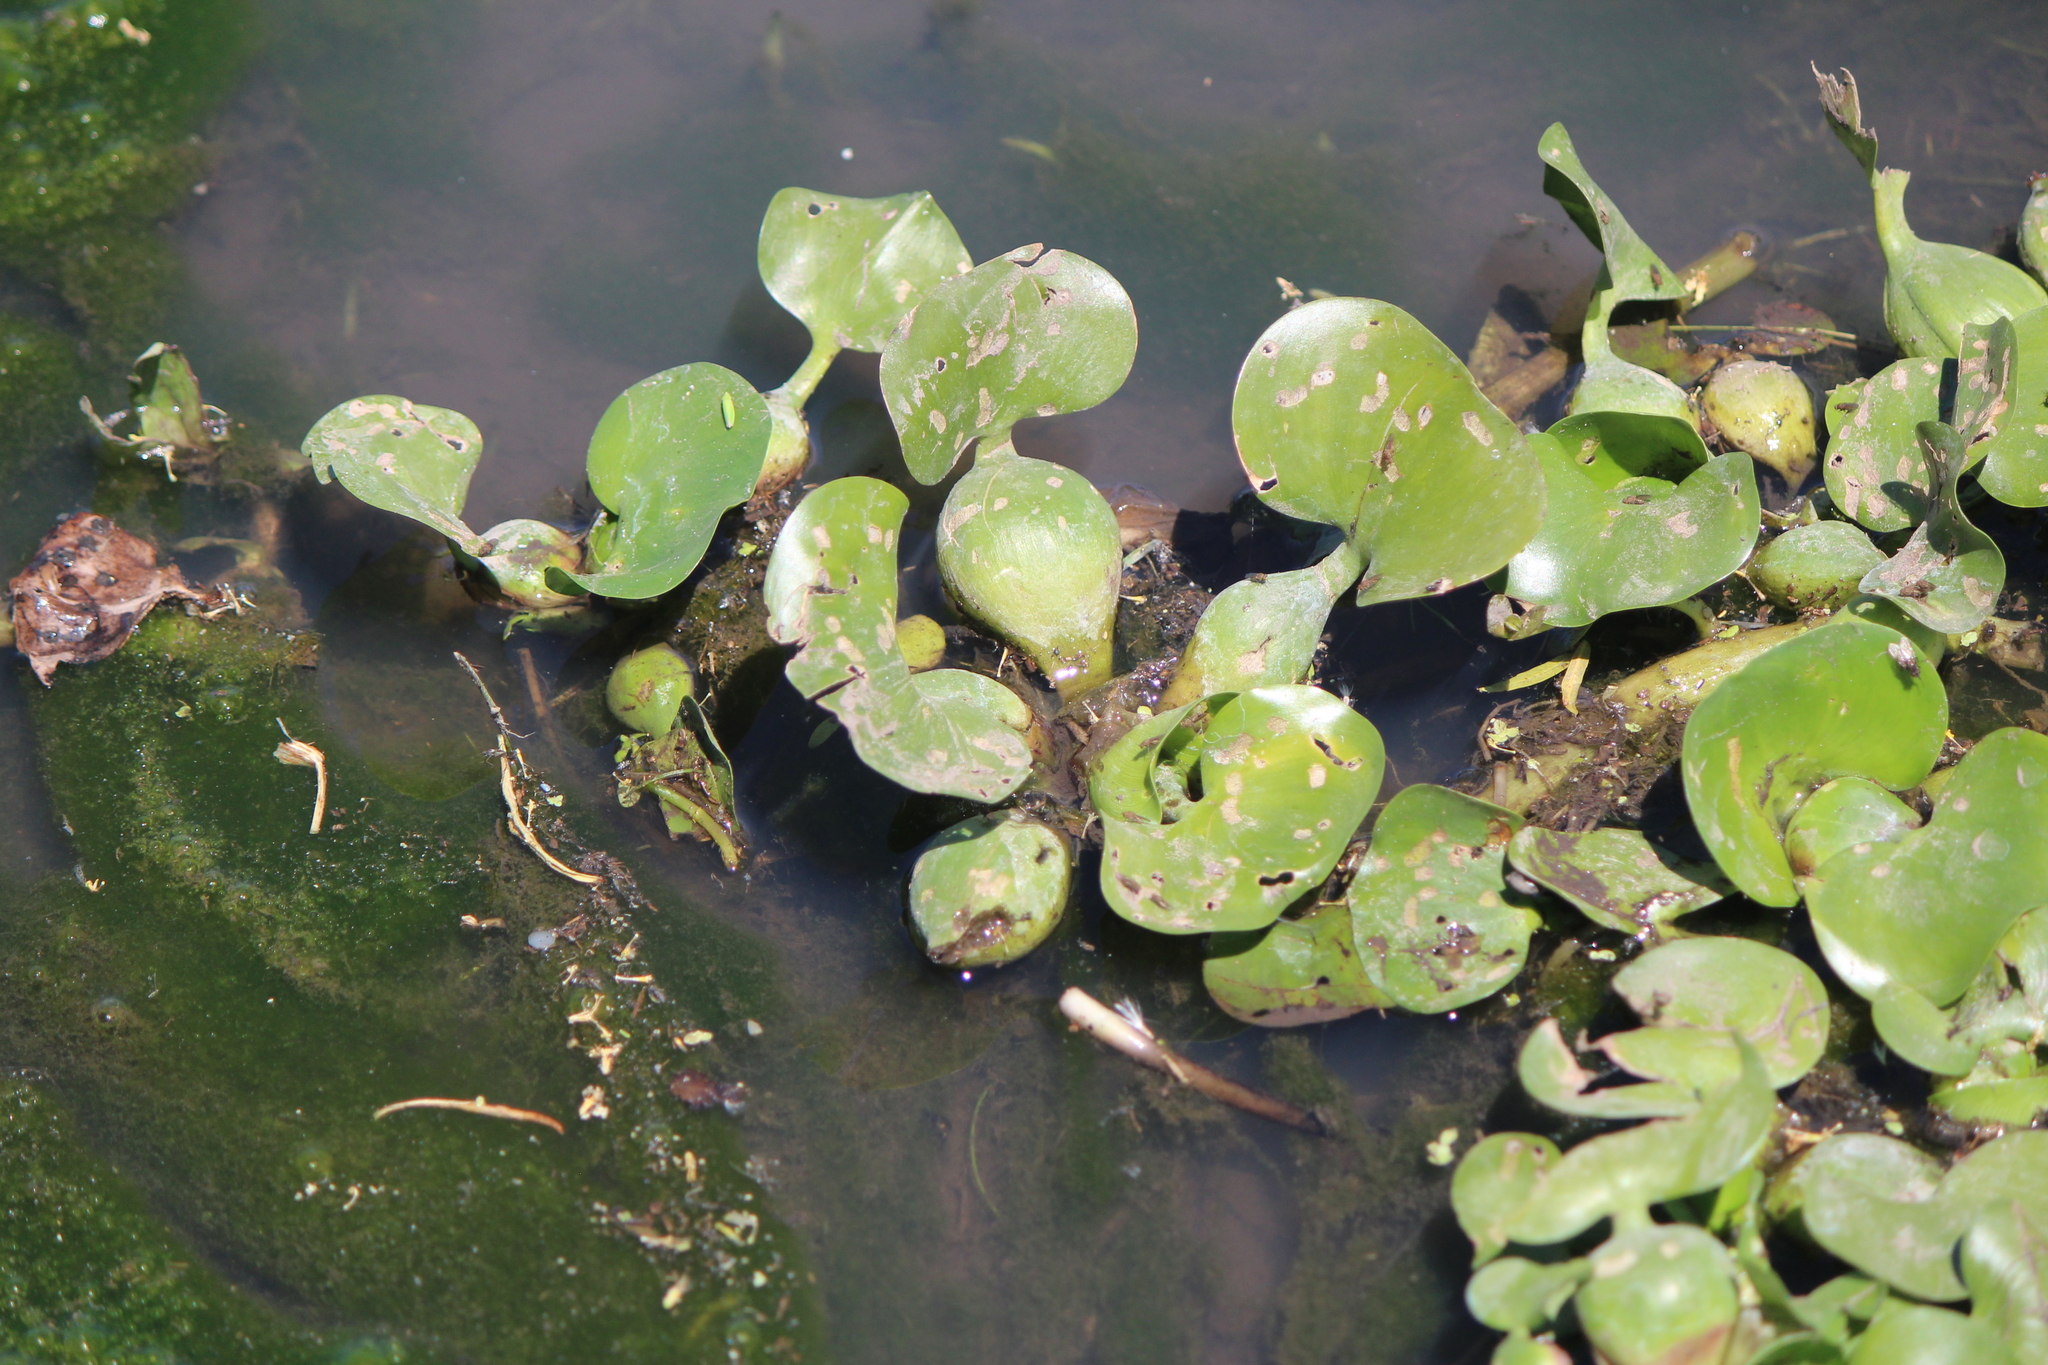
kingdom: Plantae
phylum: Tracheophyta
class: Liliopsida
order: Commelinales
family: Pontederiaceae
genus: Pontederia
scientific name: Pontederia crassipes
